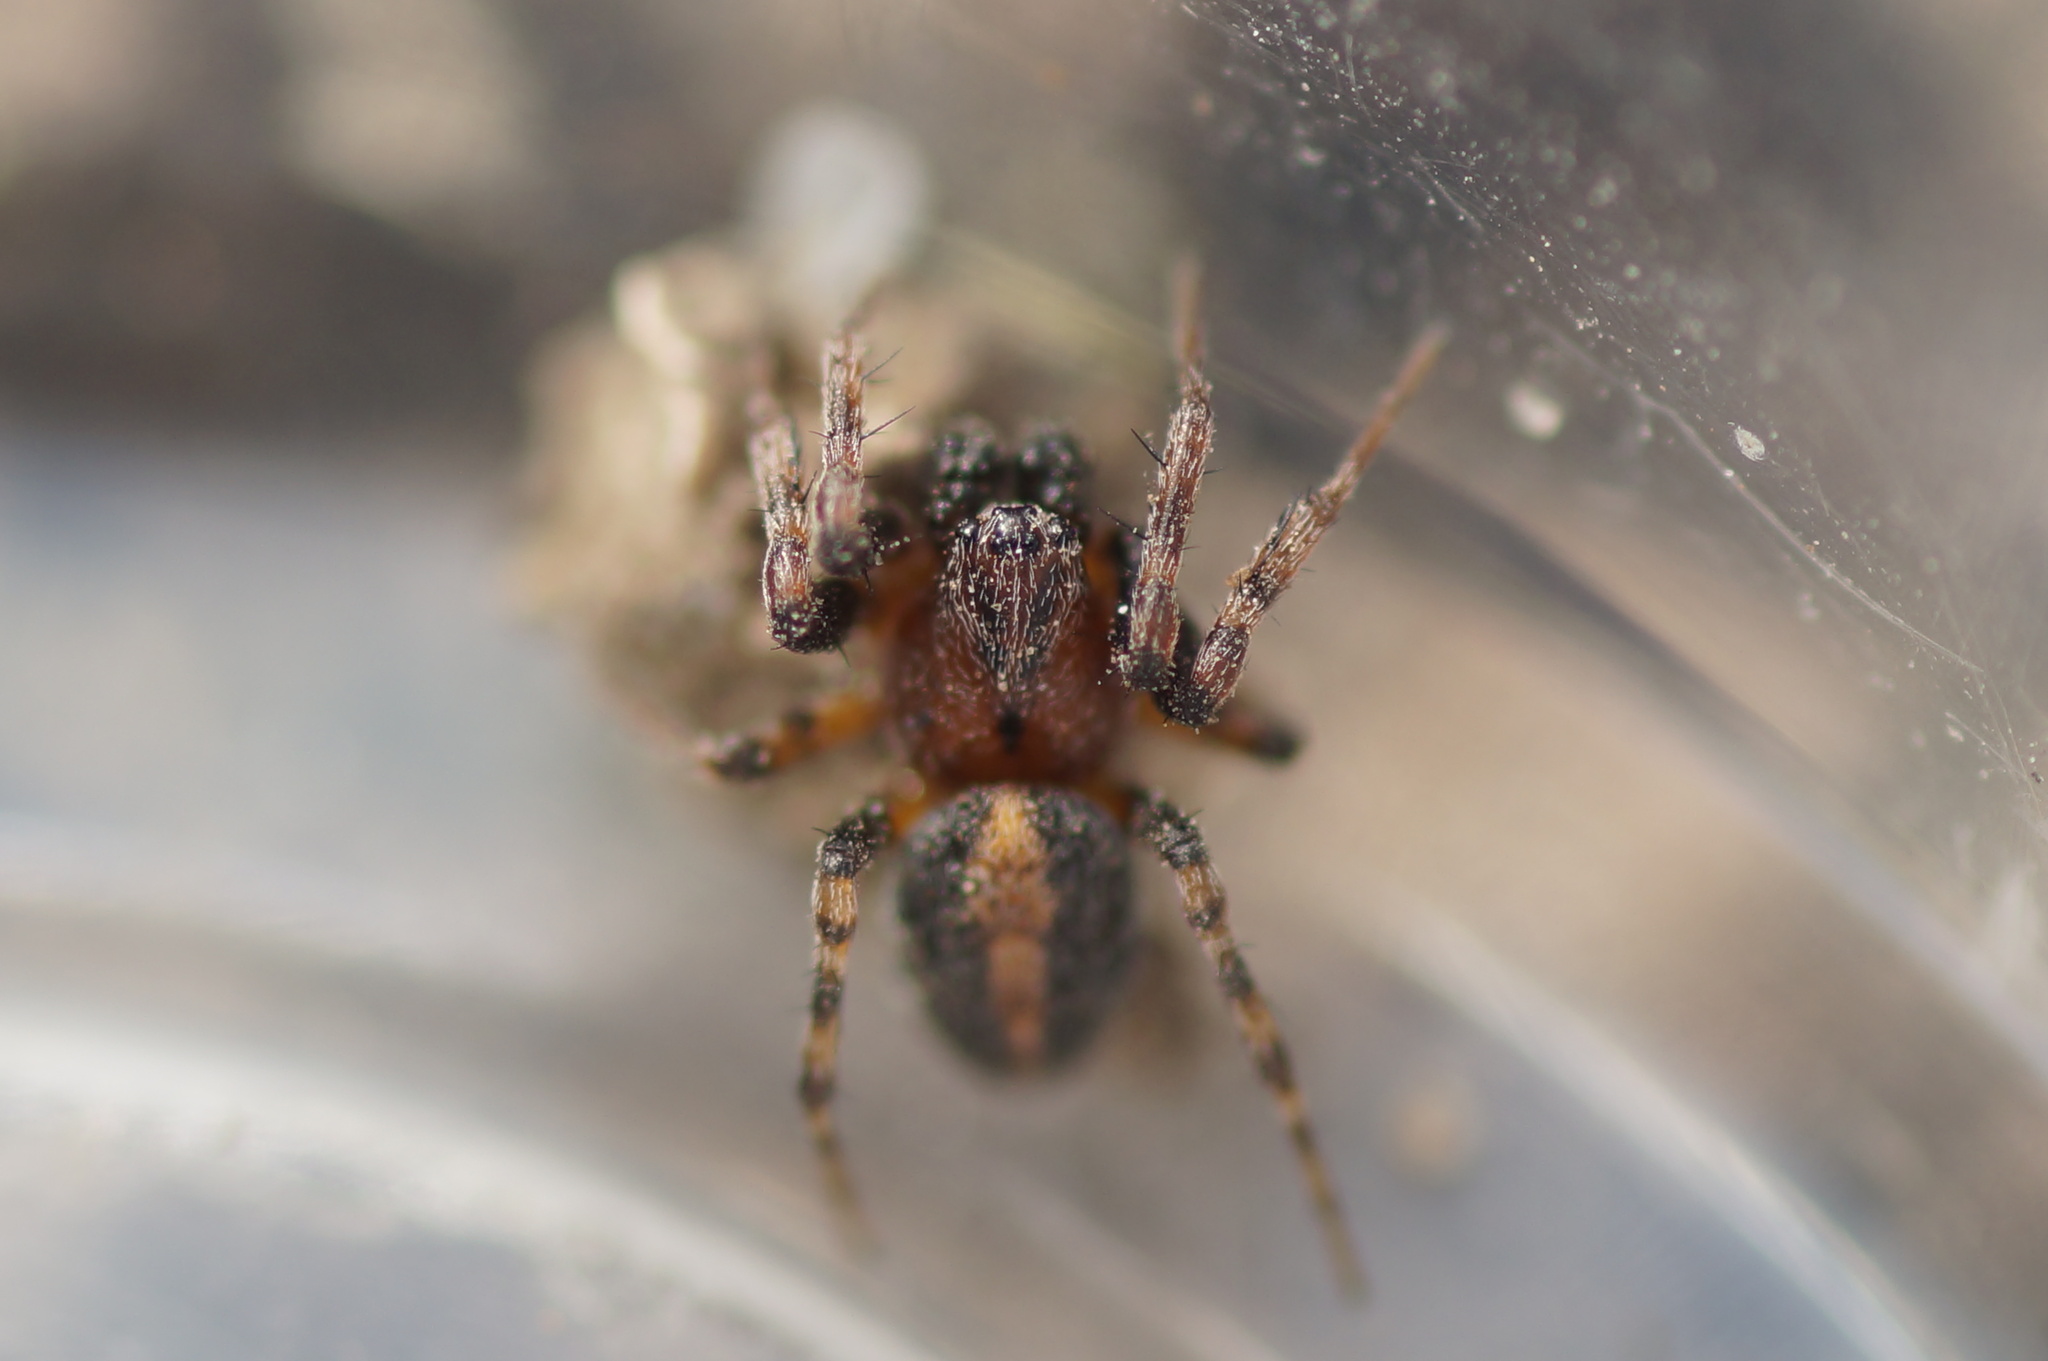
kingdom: Animalia
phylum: Arthropoda
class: Arachnida
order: Araneae
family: Araneidae
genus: Cercidia
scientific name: Cercidia prominens
